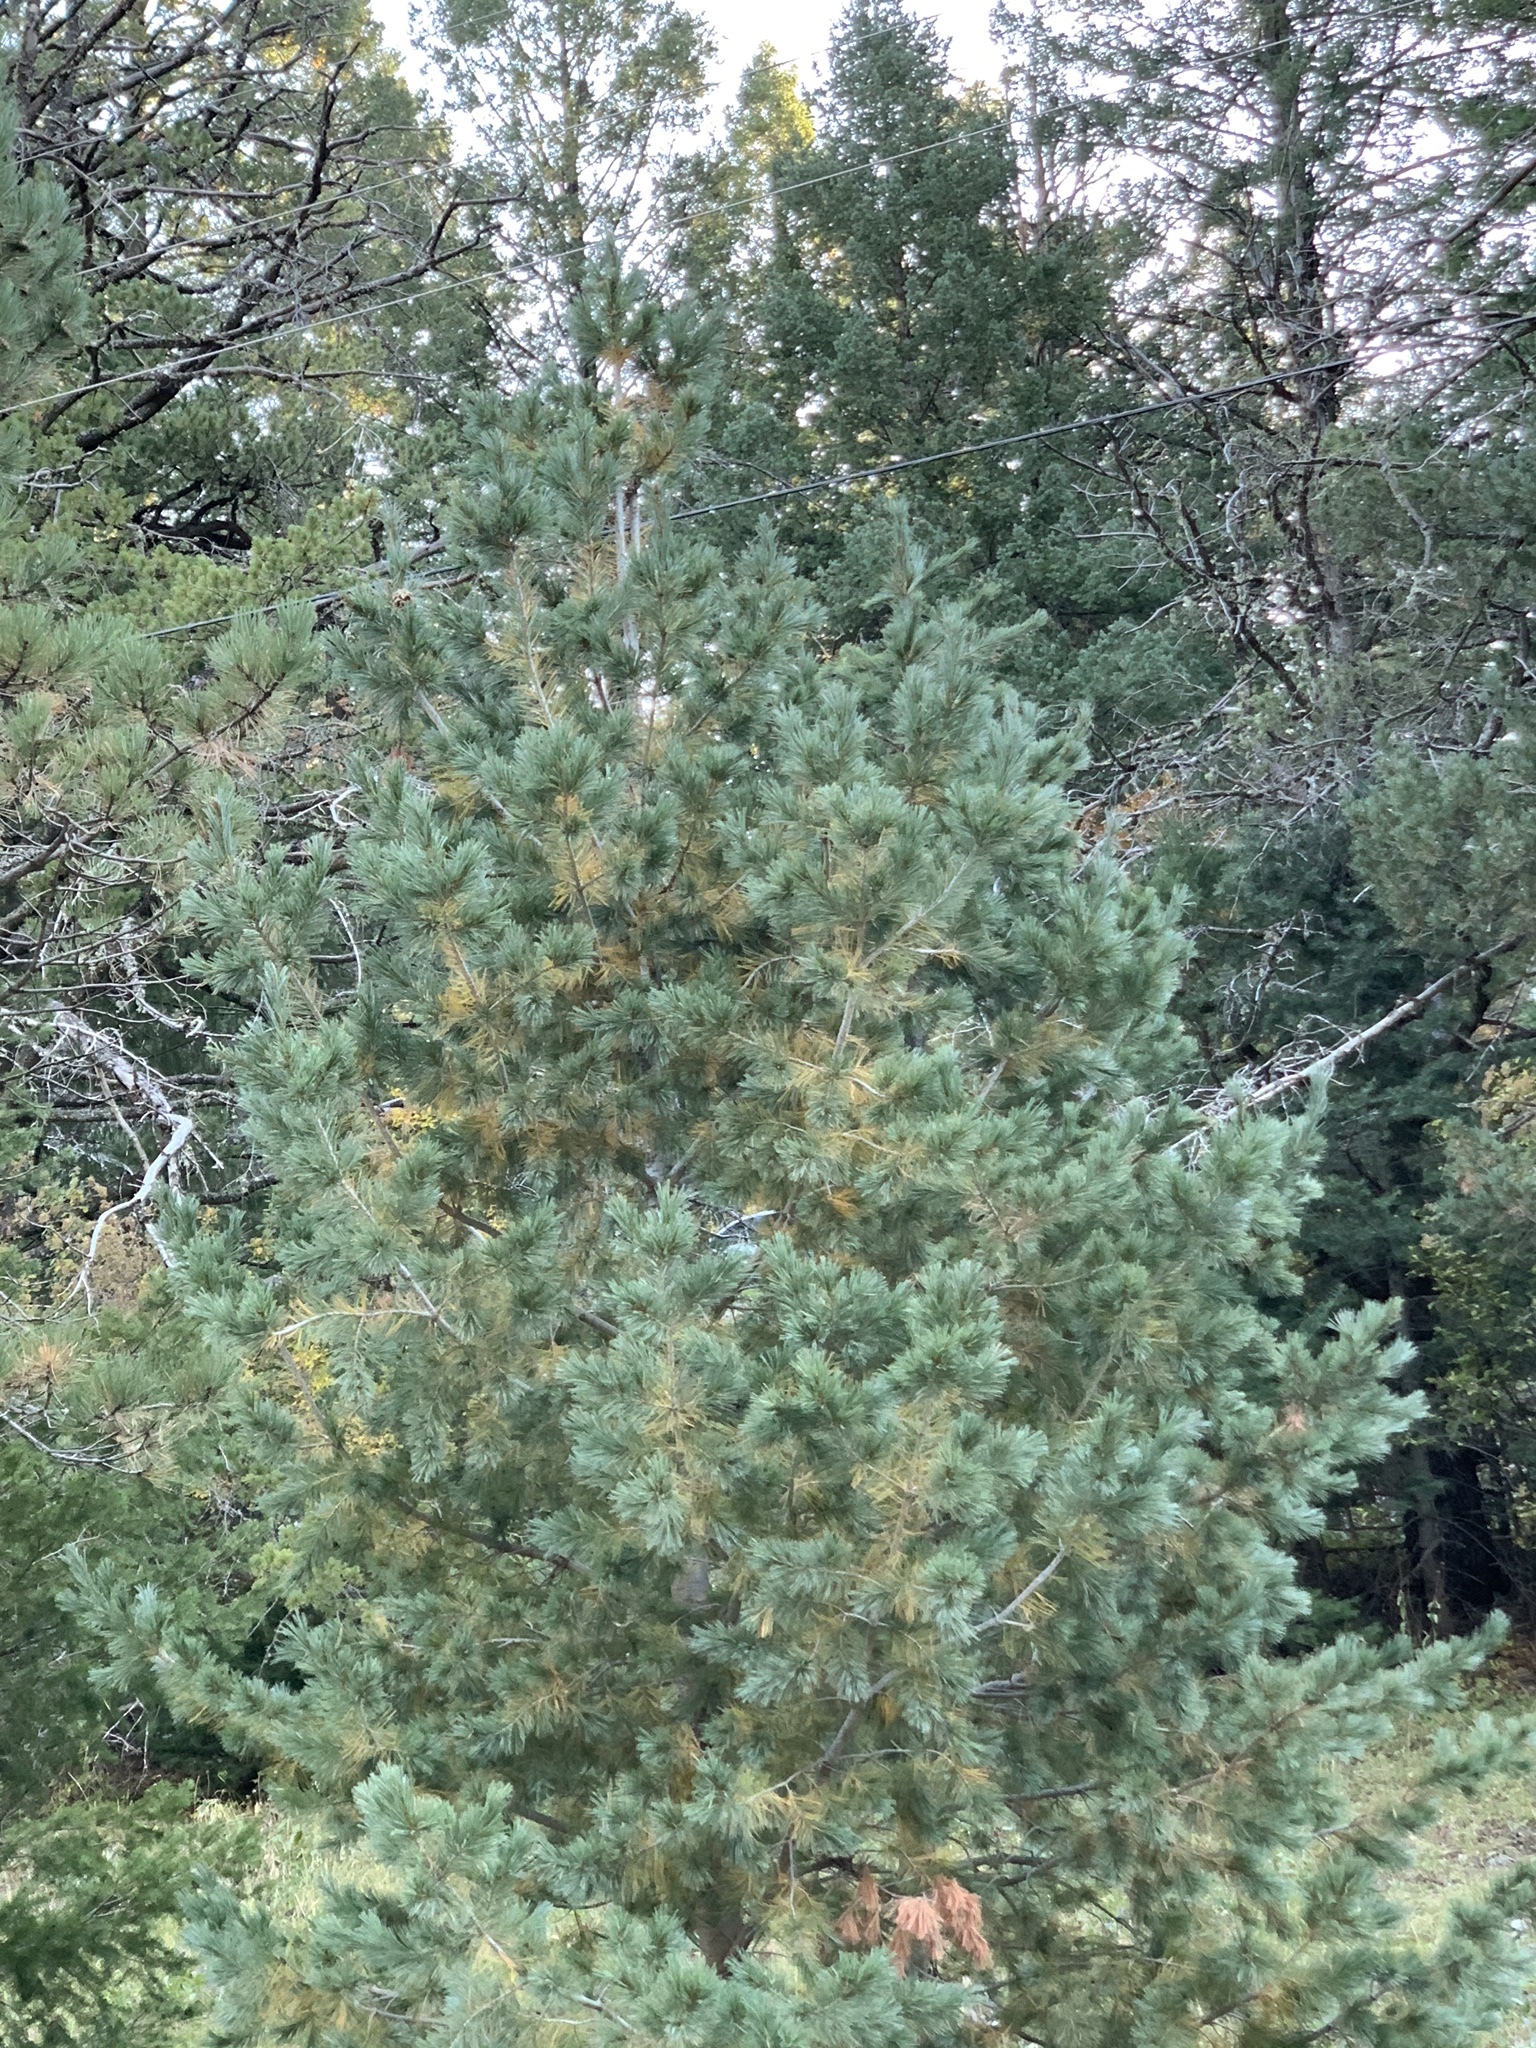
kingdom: Plantae
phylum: Tracheophyta
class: Pinopsida
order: Pinales
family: Pinaceae
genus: Pinus
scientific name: Pinus strobiformis
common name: Southwestern white pine
